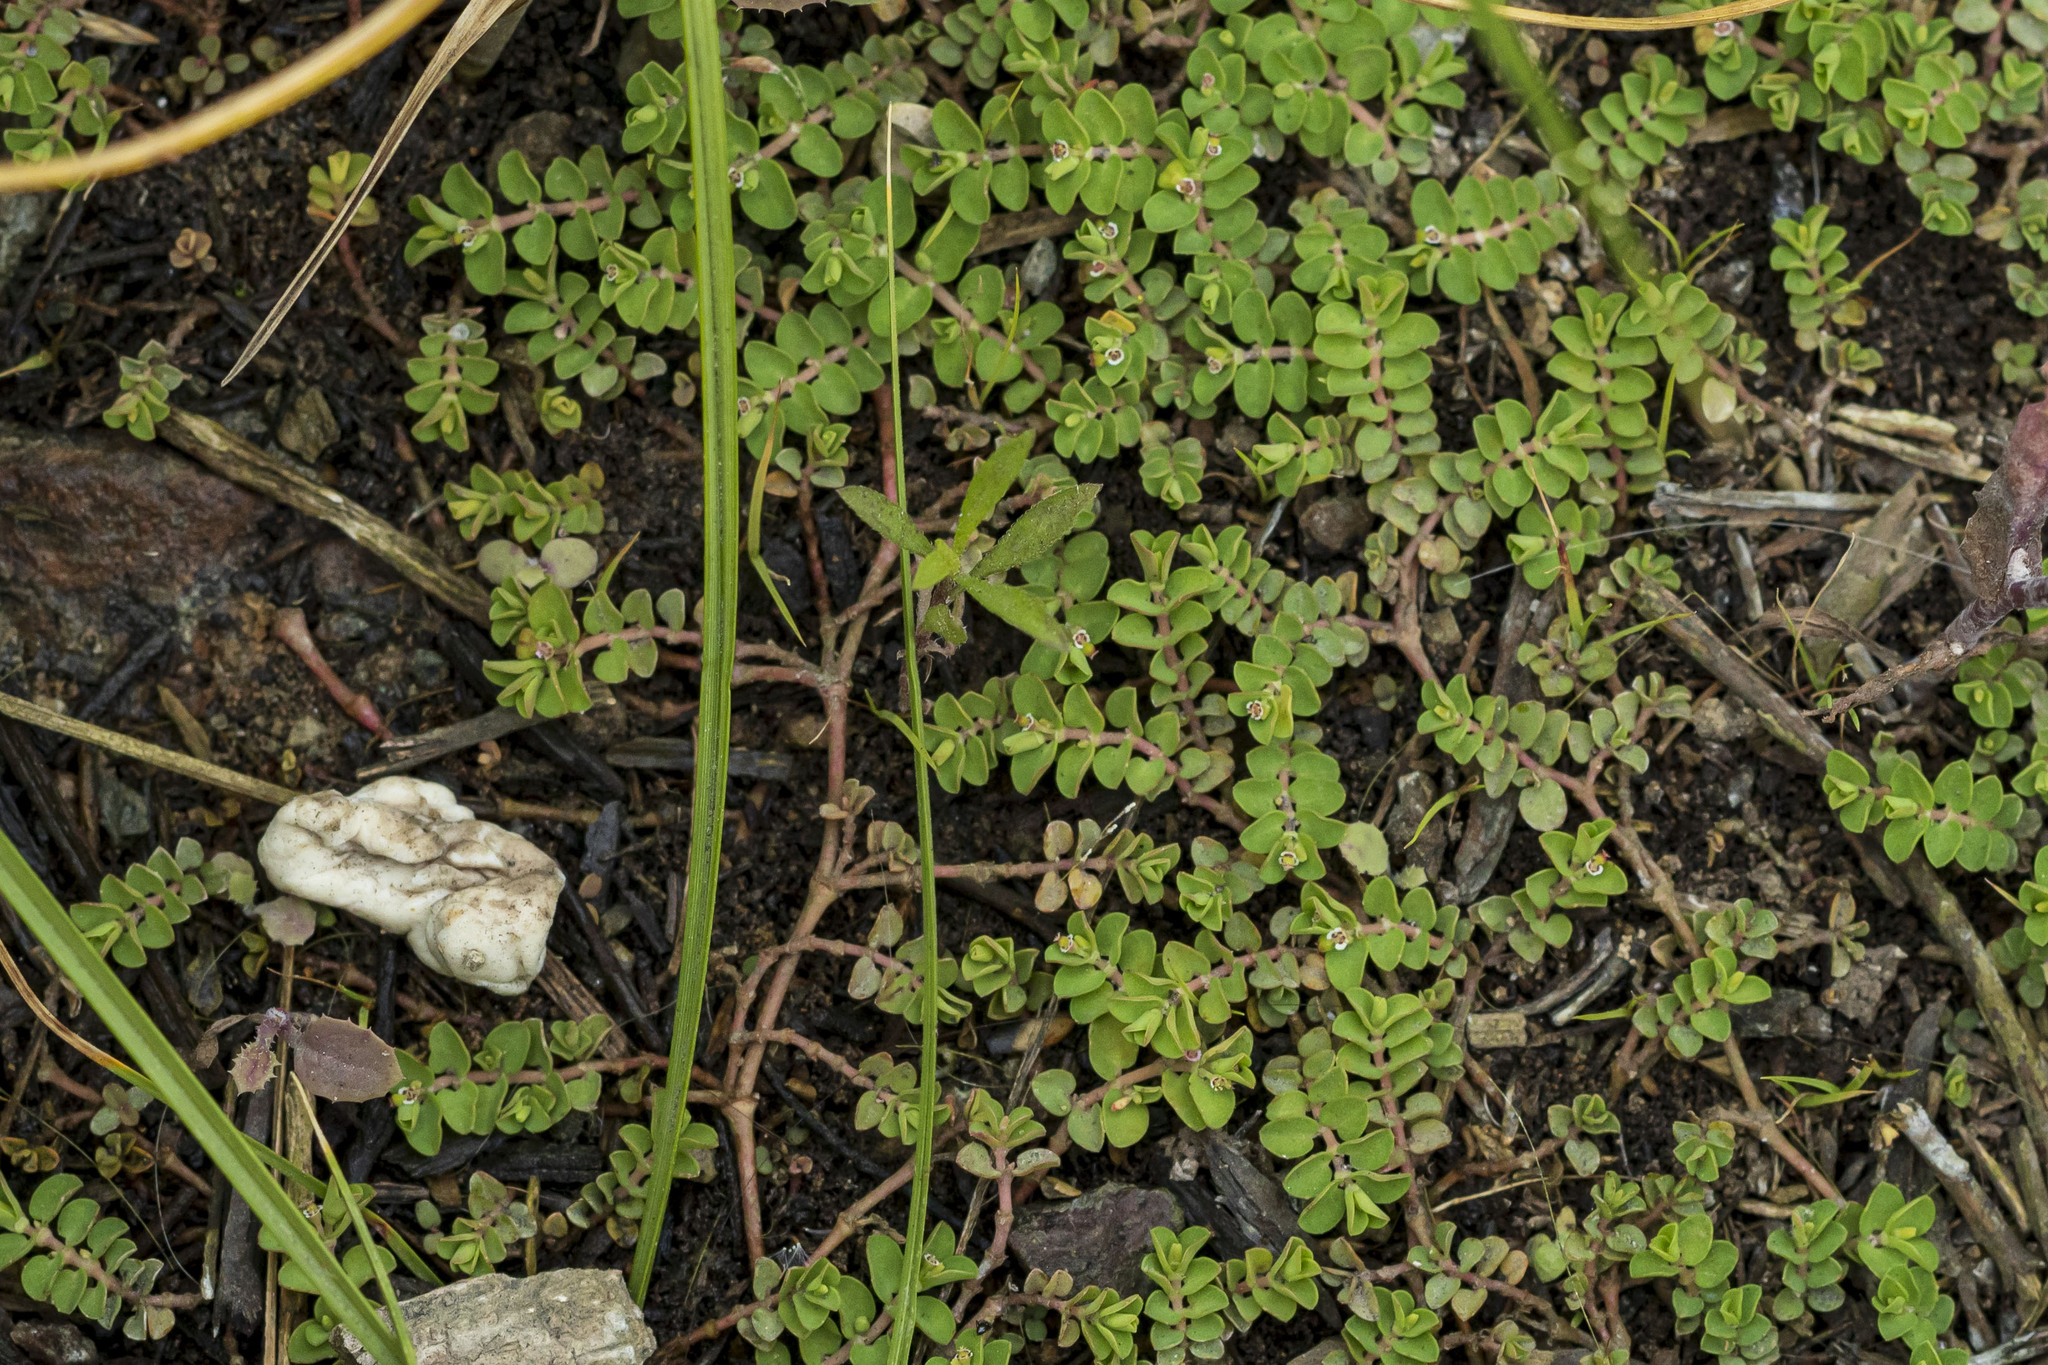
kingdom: Plantae
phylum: Tracheophyta
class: Magnoliopsida
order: Malpighiales
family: Euphorbiaceae
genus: Euphorbia
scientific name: Euphorbia serpens
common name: Matted sandmat
